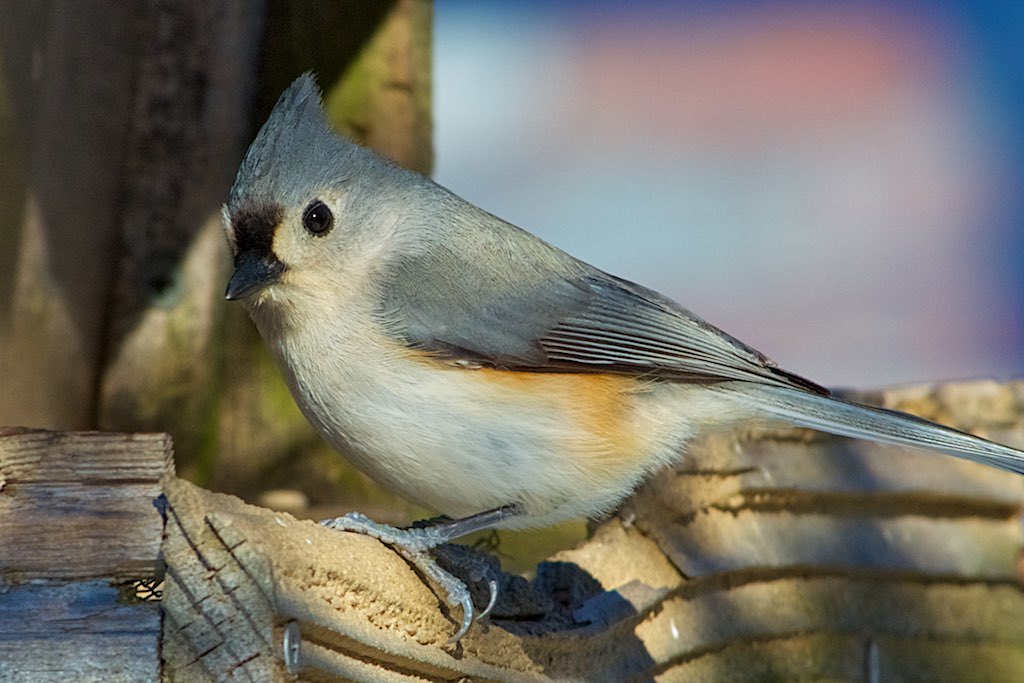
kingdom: Animalia
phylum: Chordata
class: Aves
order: Passeriformes
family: Paridae
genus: Baeolophus
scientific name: Baeolophus bicolor
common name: Tufted titmouse
